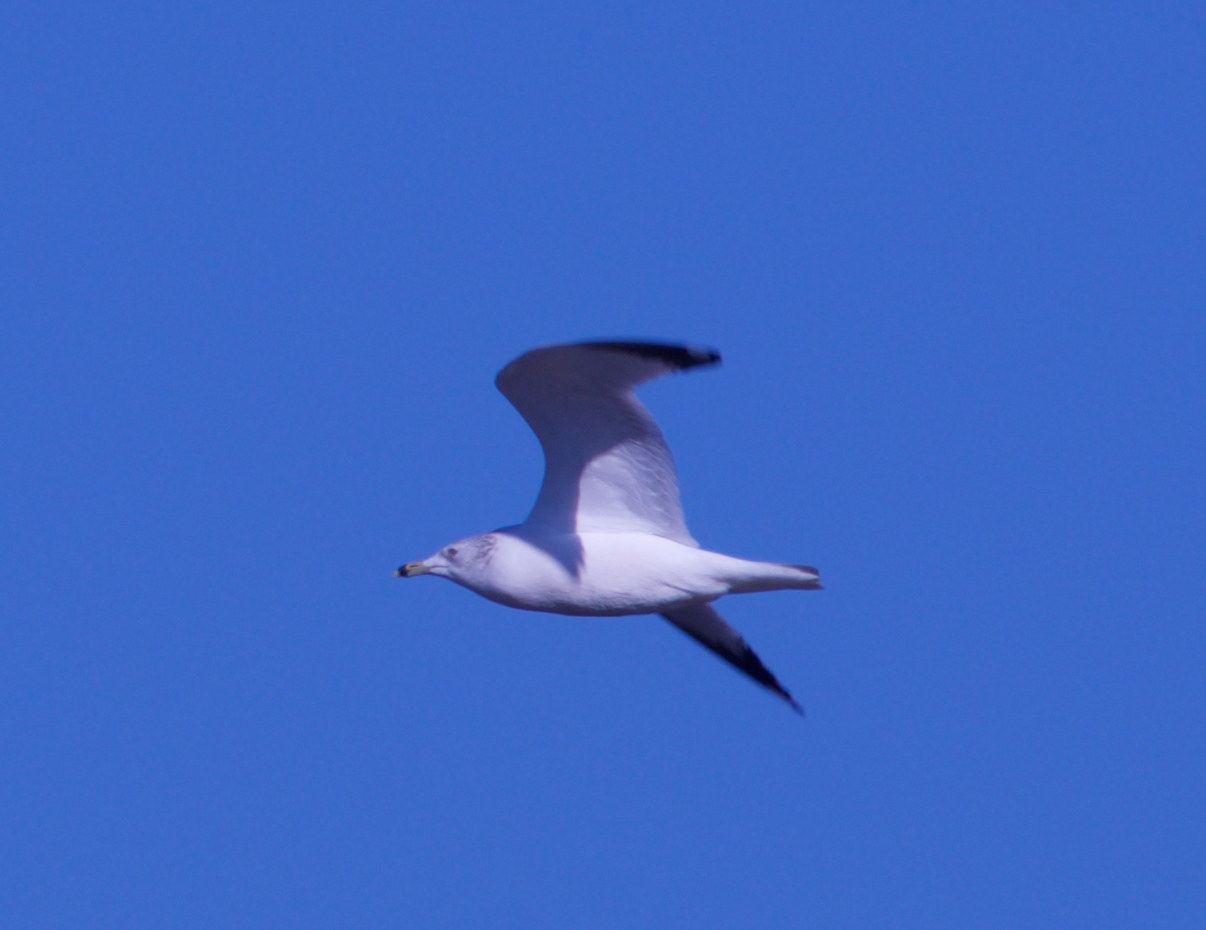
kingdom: Animalia
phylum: Chordata
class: Aves
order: Charadriiformes
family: Laridae
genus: Larus
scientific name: Larus delawarensis
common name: Ring-billed gull
